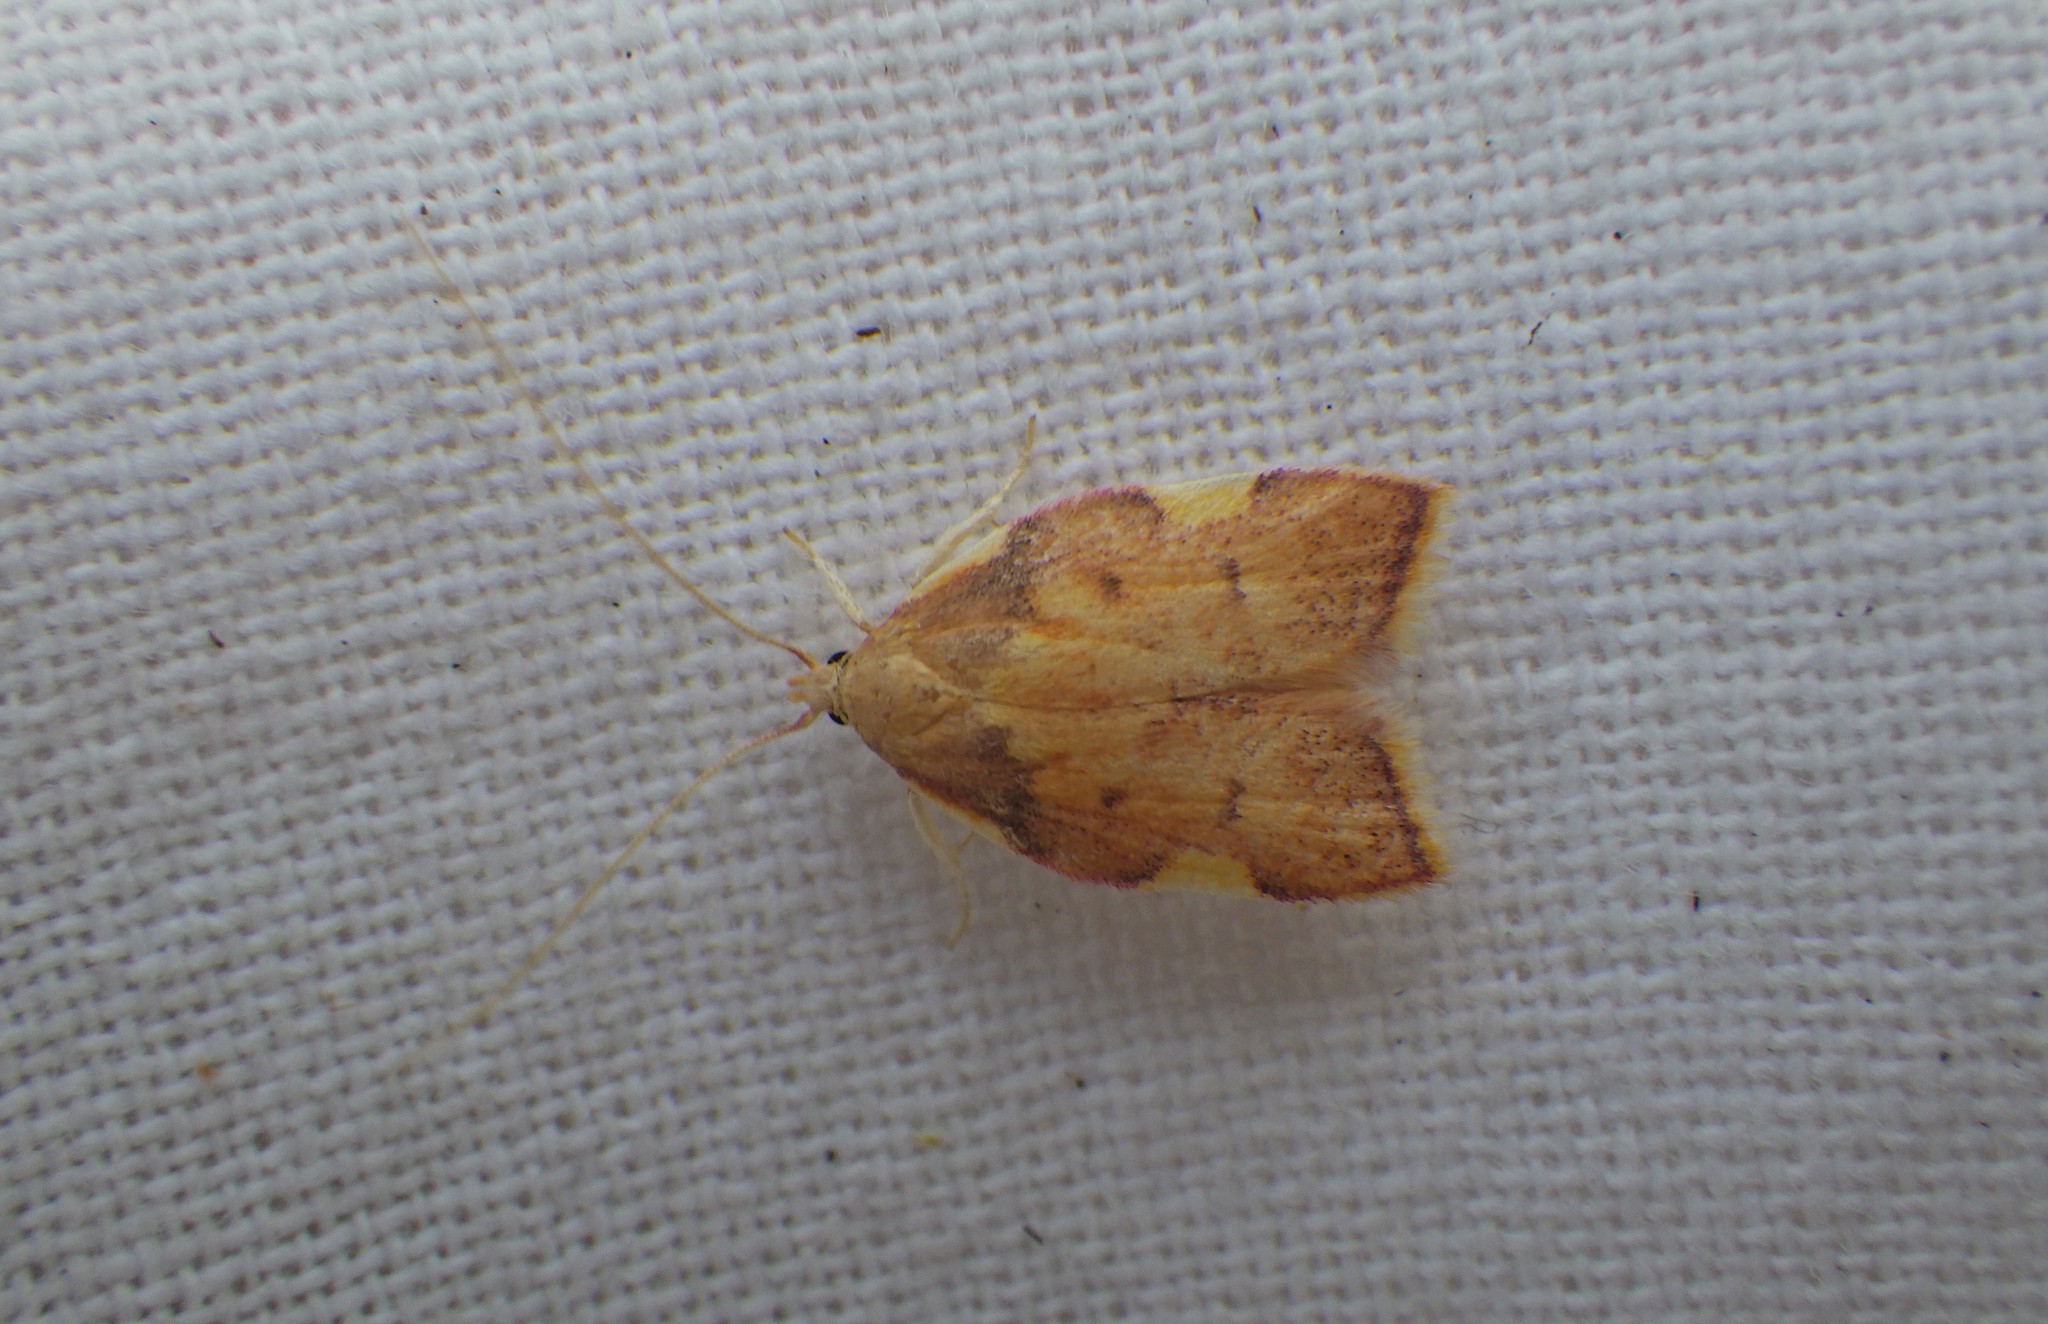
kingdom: Animalia
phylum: Arthropoda
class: Insecta
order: Lepidoptera
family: Peleopodidae
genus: Carcina
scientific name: Carcina quercana
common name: Moth
